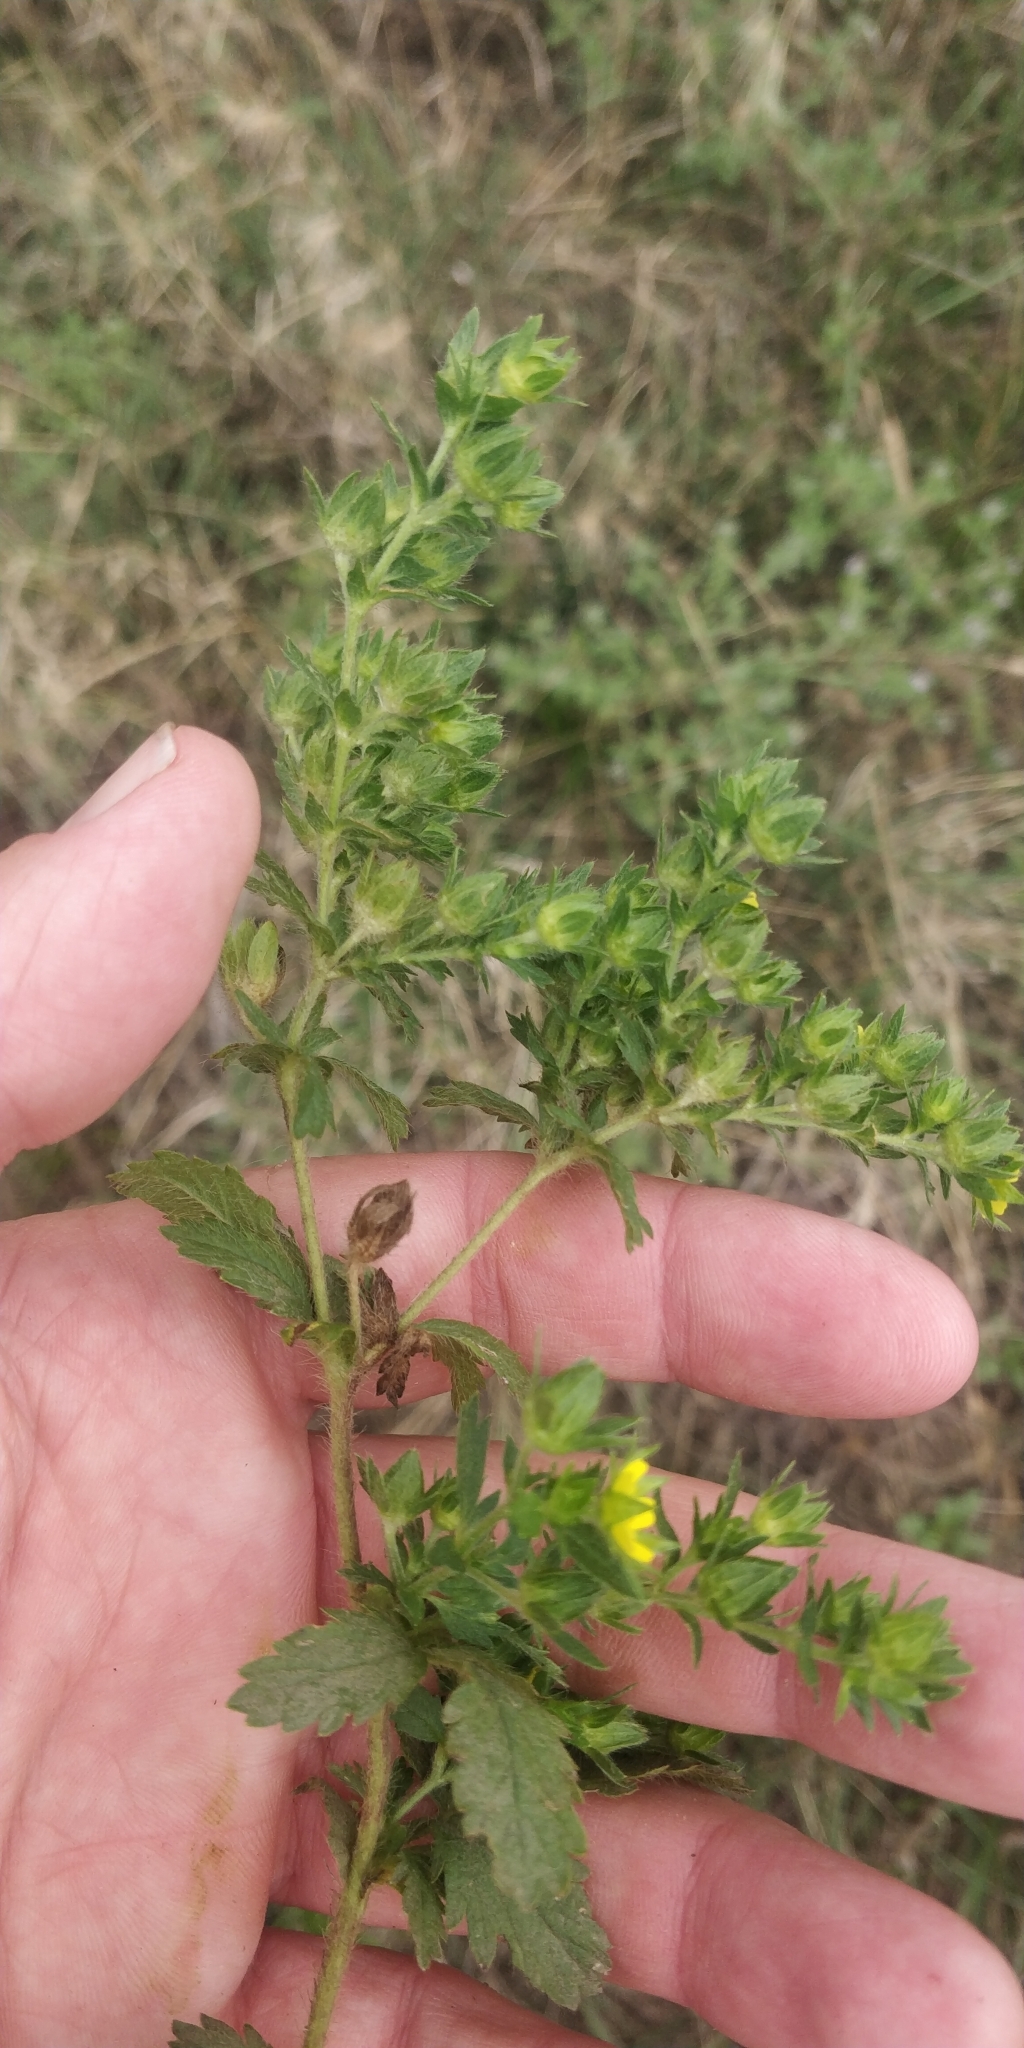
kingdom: Plantae
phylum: Tracheophyta
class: Magnoliopsida
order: Rosales
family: Rosaceae
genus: Potentilla
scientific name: Potentilla norvegica
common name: Ternate-leaved cinquefoil
